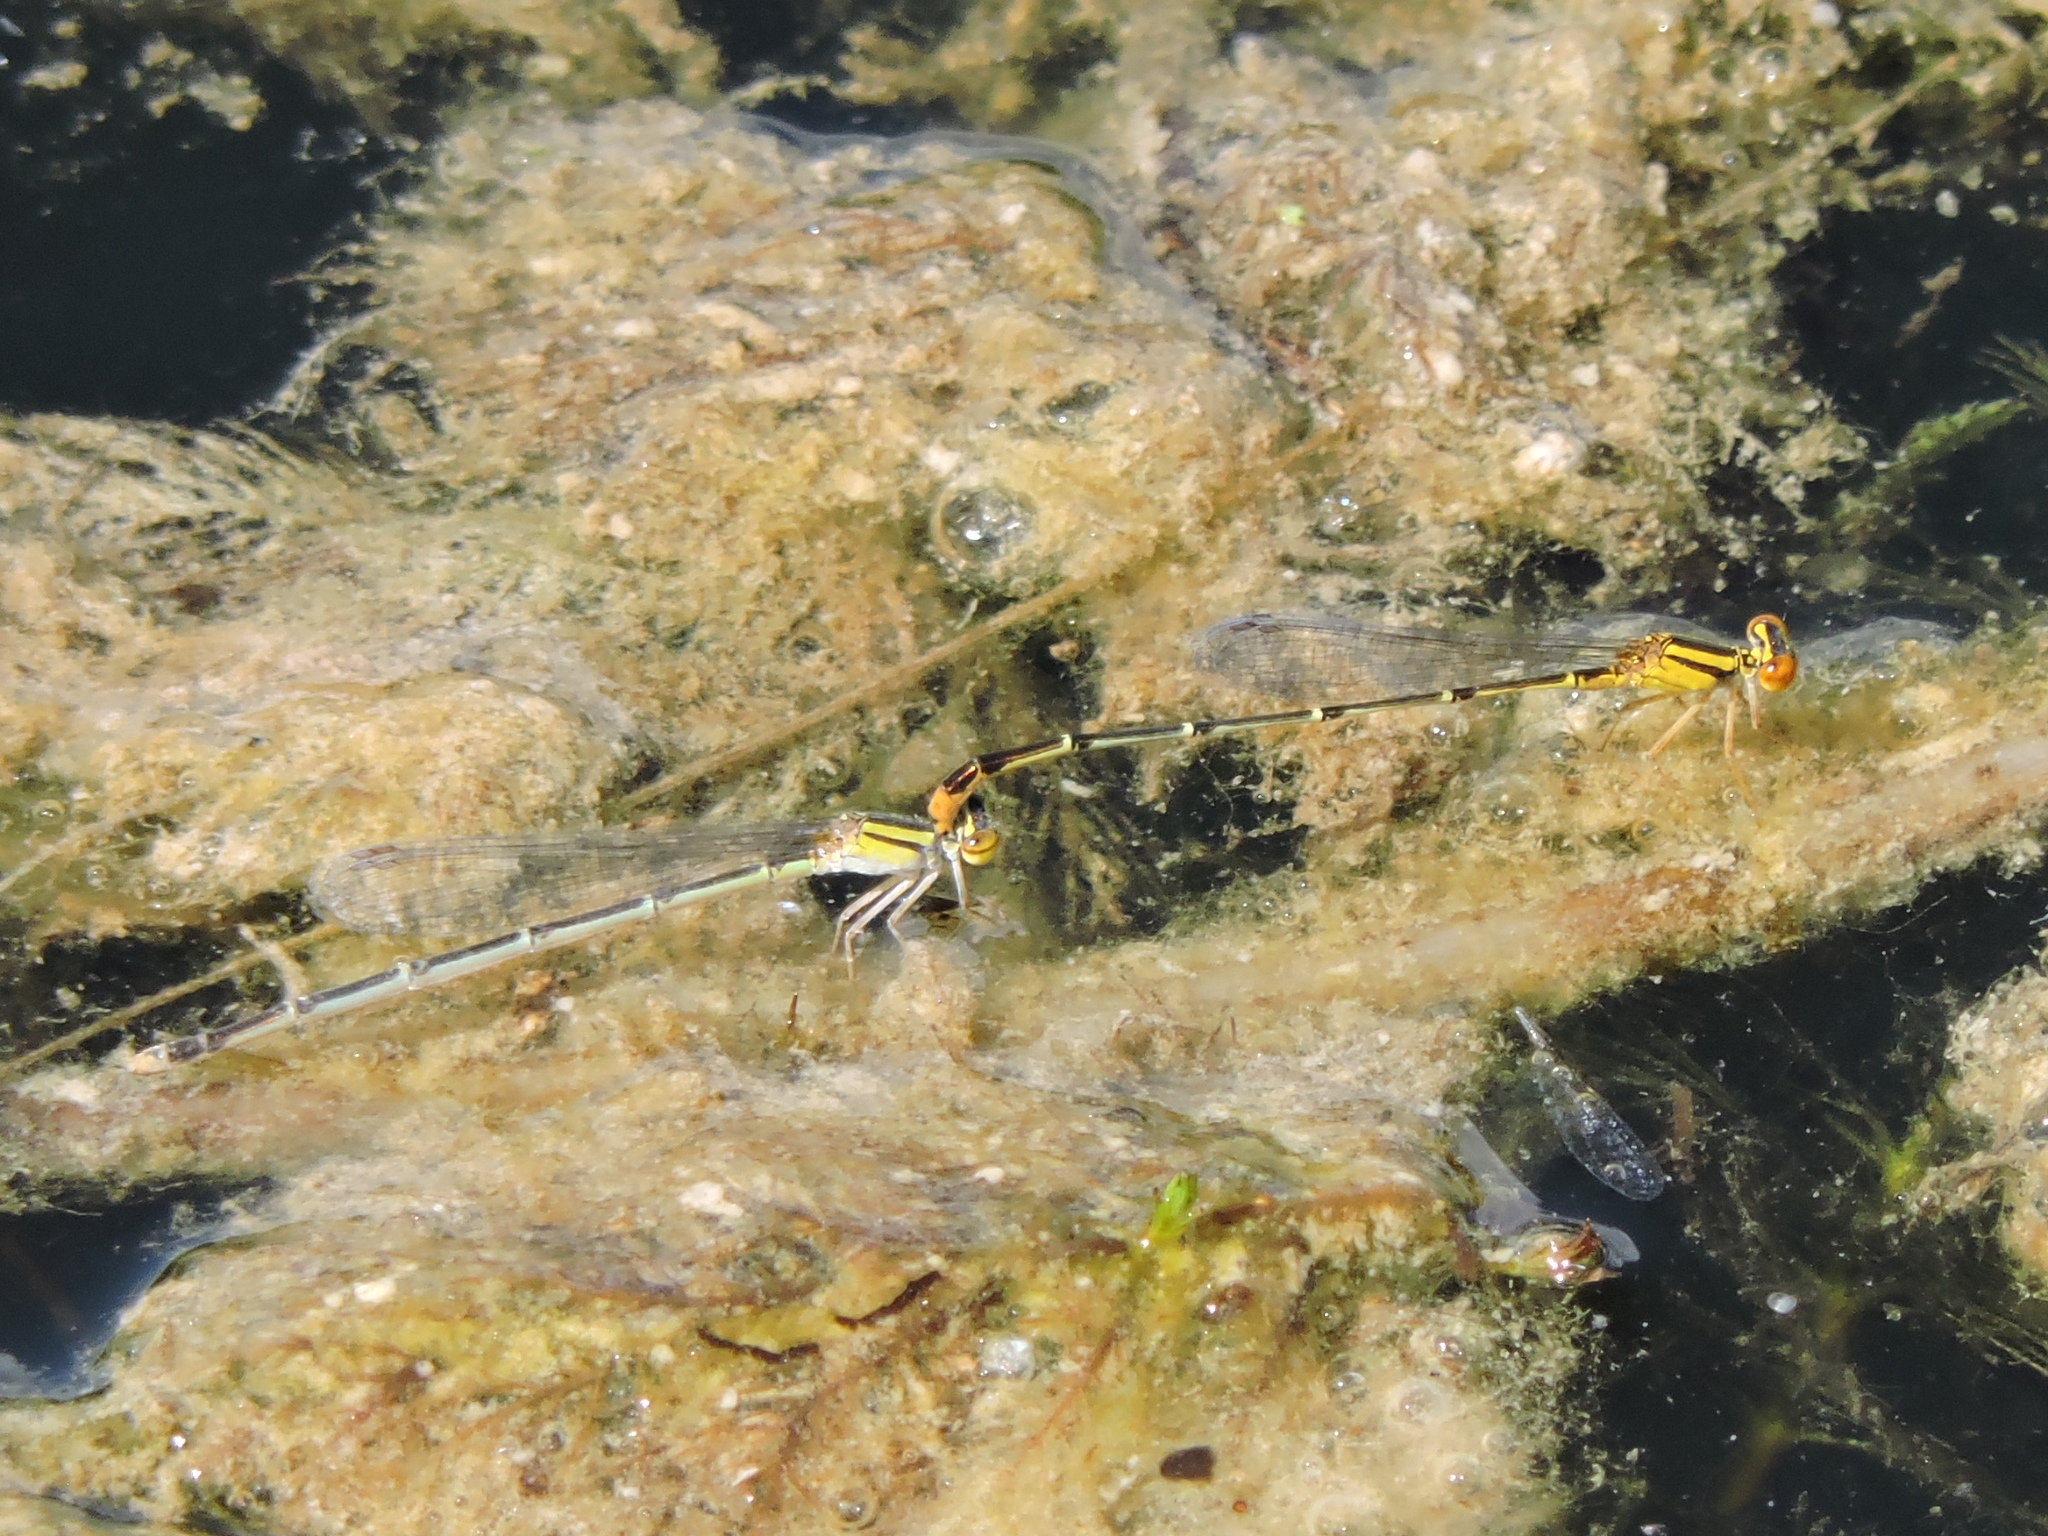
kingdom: Animalia
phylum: Arthropoda
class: Insecta
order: Odonata
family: Coenagrionidae
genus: Enallagma
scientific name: Enallagma signatum
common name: Orange bluet
